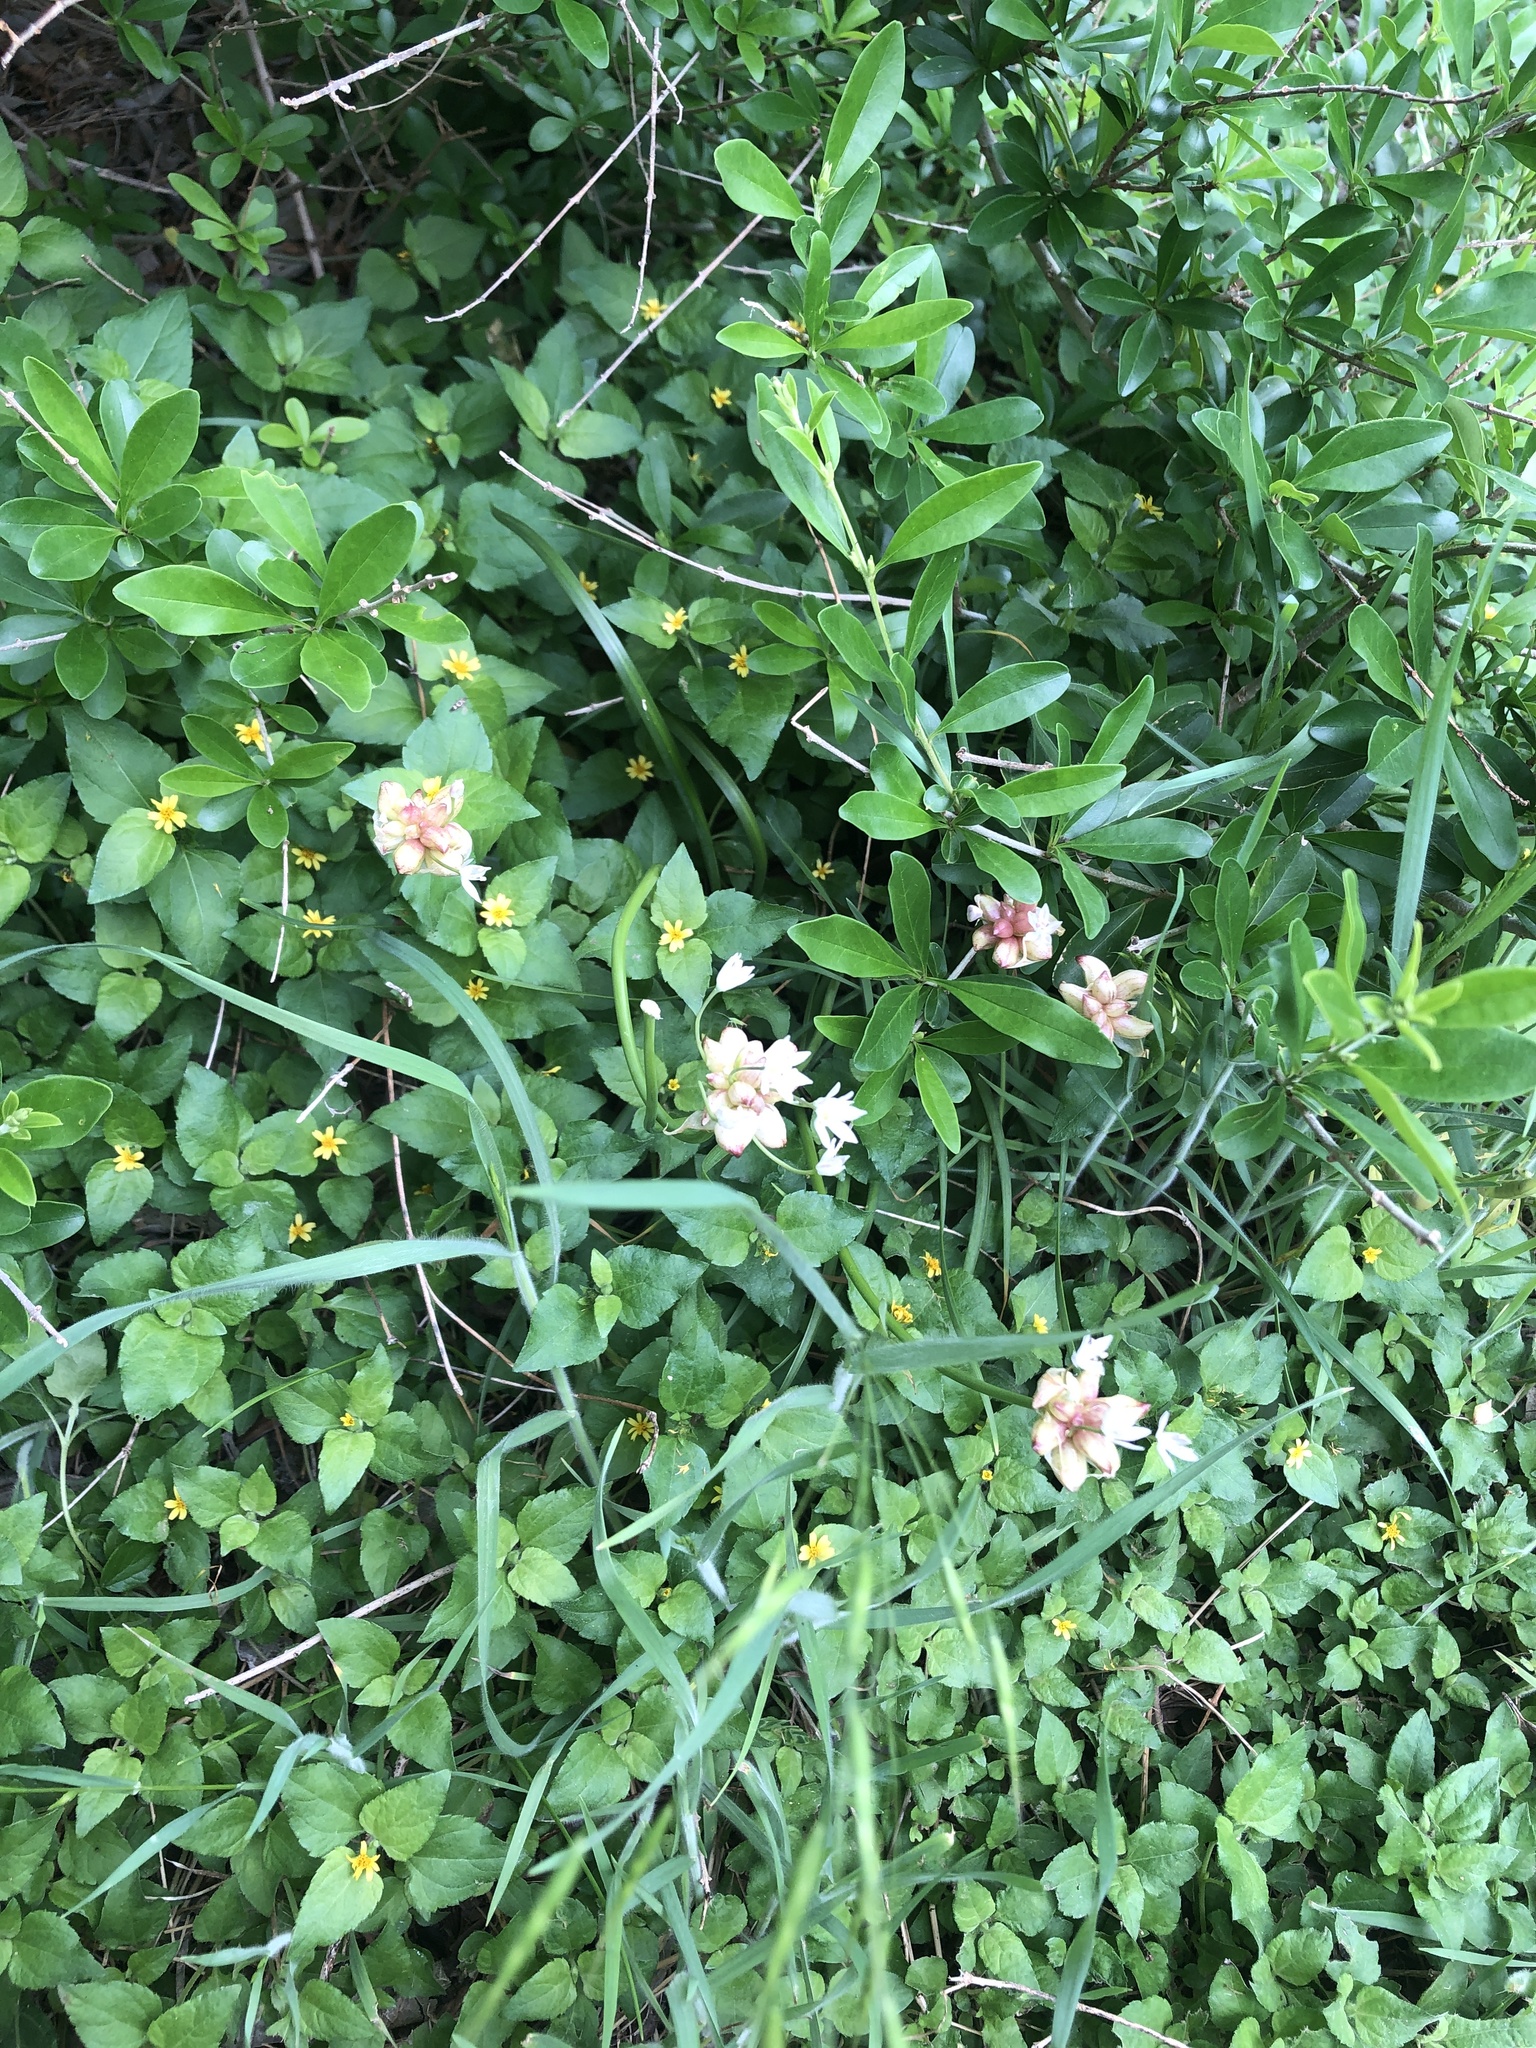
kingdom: Plantae
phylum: Tracheophyta
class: Liliopsida
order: Asparagales
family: Amaryllidaceae
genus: Allium
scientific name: Allium canadense
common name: Meadow garlic
